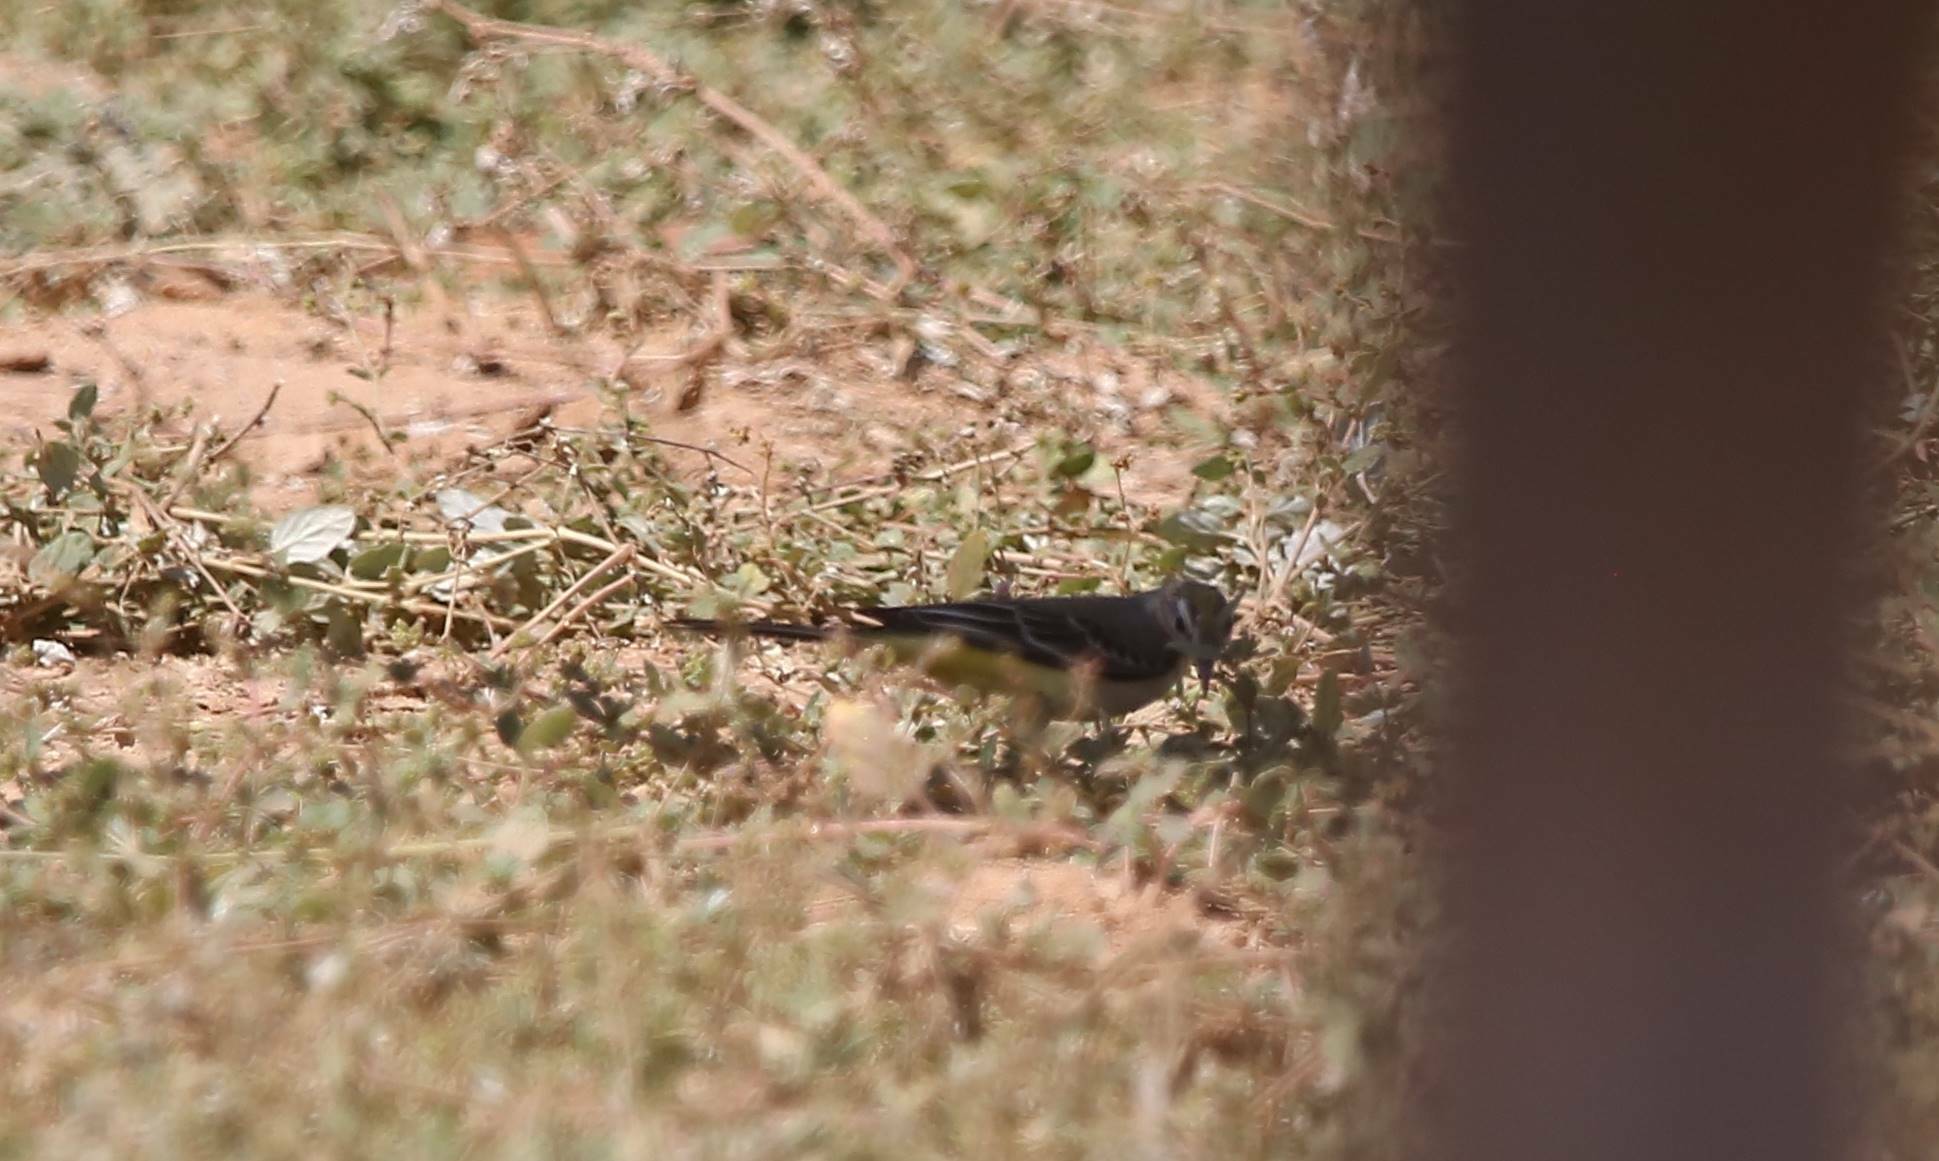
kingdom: Animalia
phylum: Chordata
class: Aves
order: Passeriformes
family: Motacillidae
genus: Motacilla
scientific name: Motacilla flava
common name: Western yellow wagtail
